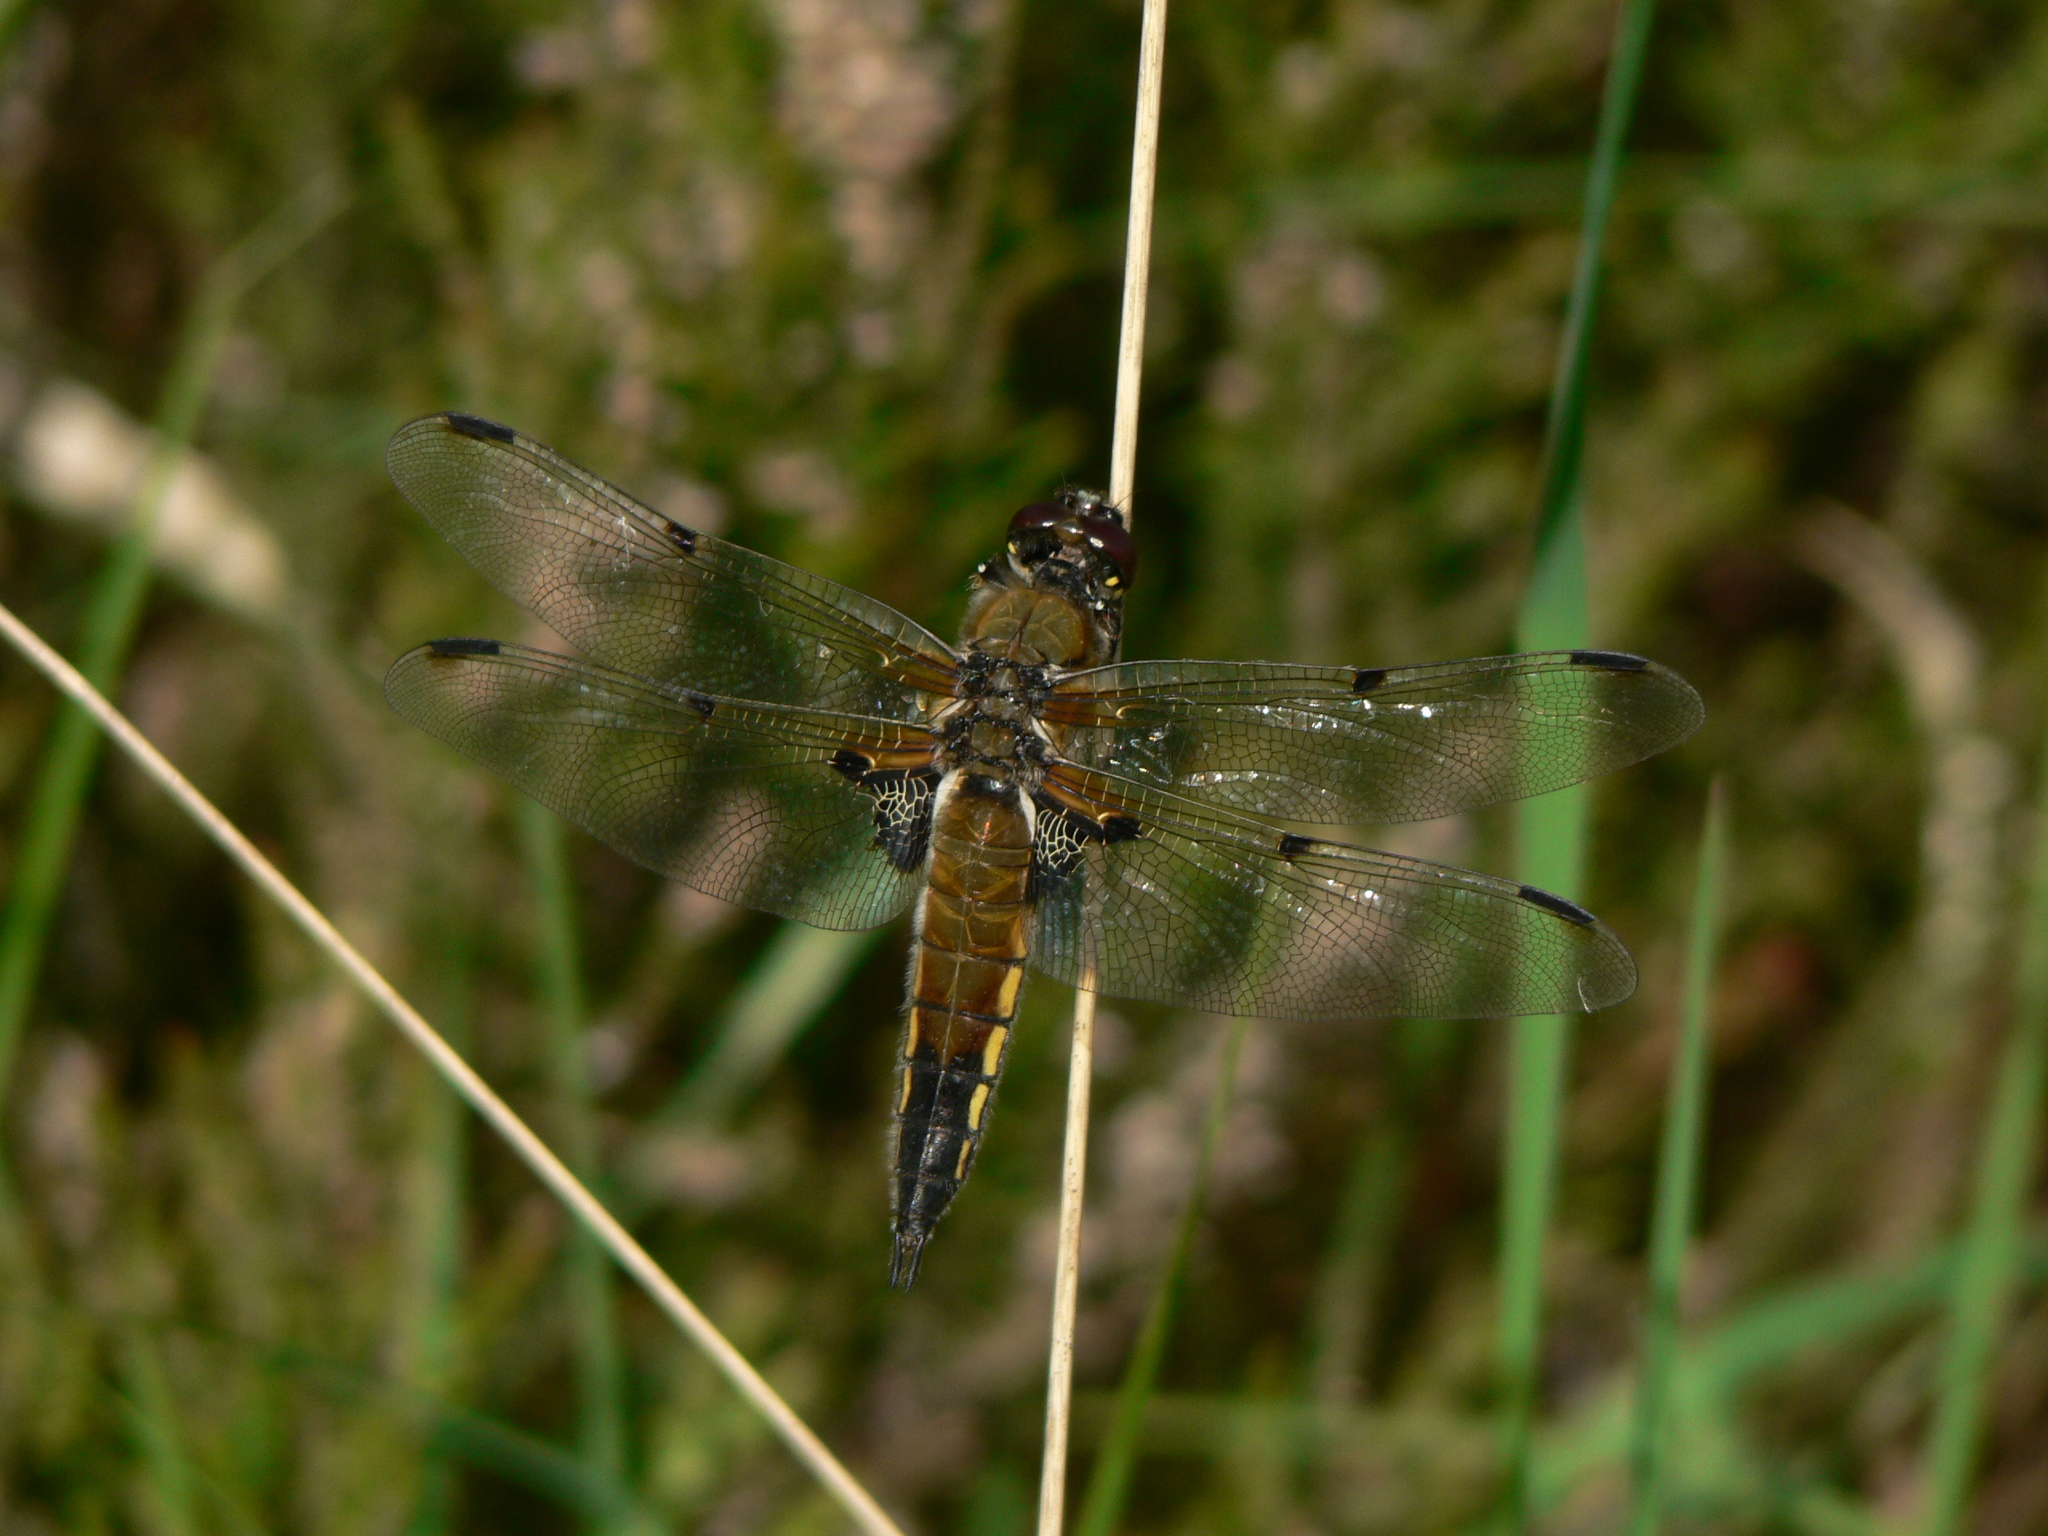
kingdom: Animalia
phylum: Arthropoda
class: Insecta
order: Odonata
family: Libellulidae
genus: Libellula
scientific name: Libellula quadrimaculata
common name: Four-spotted chaser
